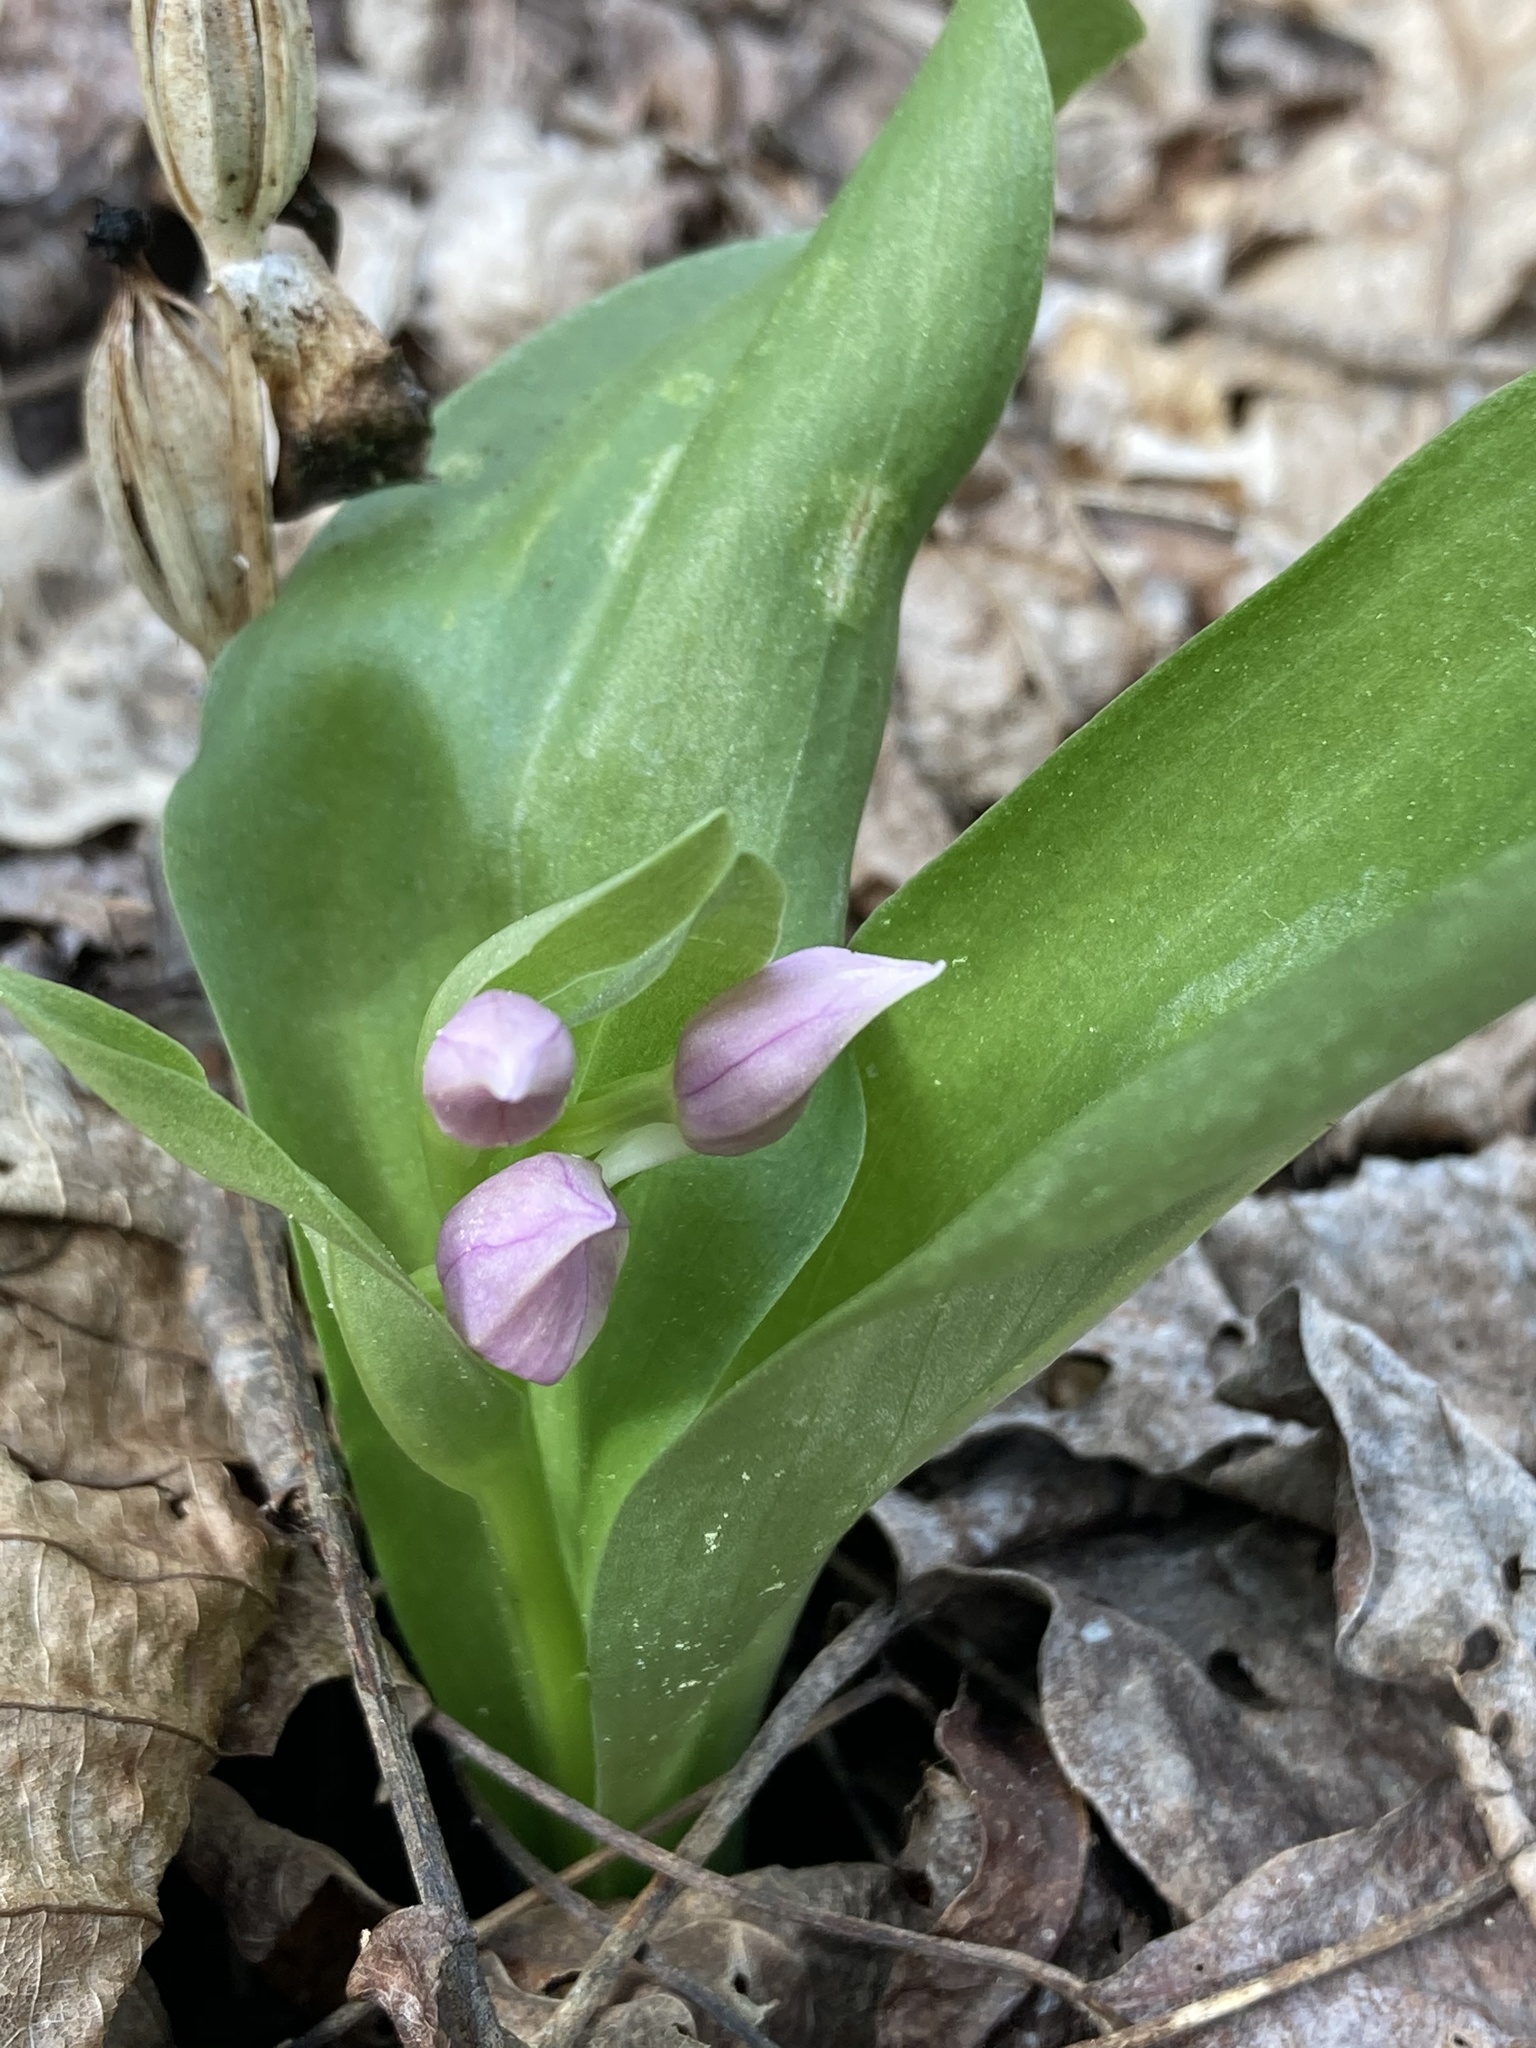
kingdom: Plantae
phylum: Tracheophyta
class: Liliopsida
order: Asparagales
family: Orchidaceae
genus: Galearis
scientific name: Galearis spectabilis
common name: Purple-hooded orchis
